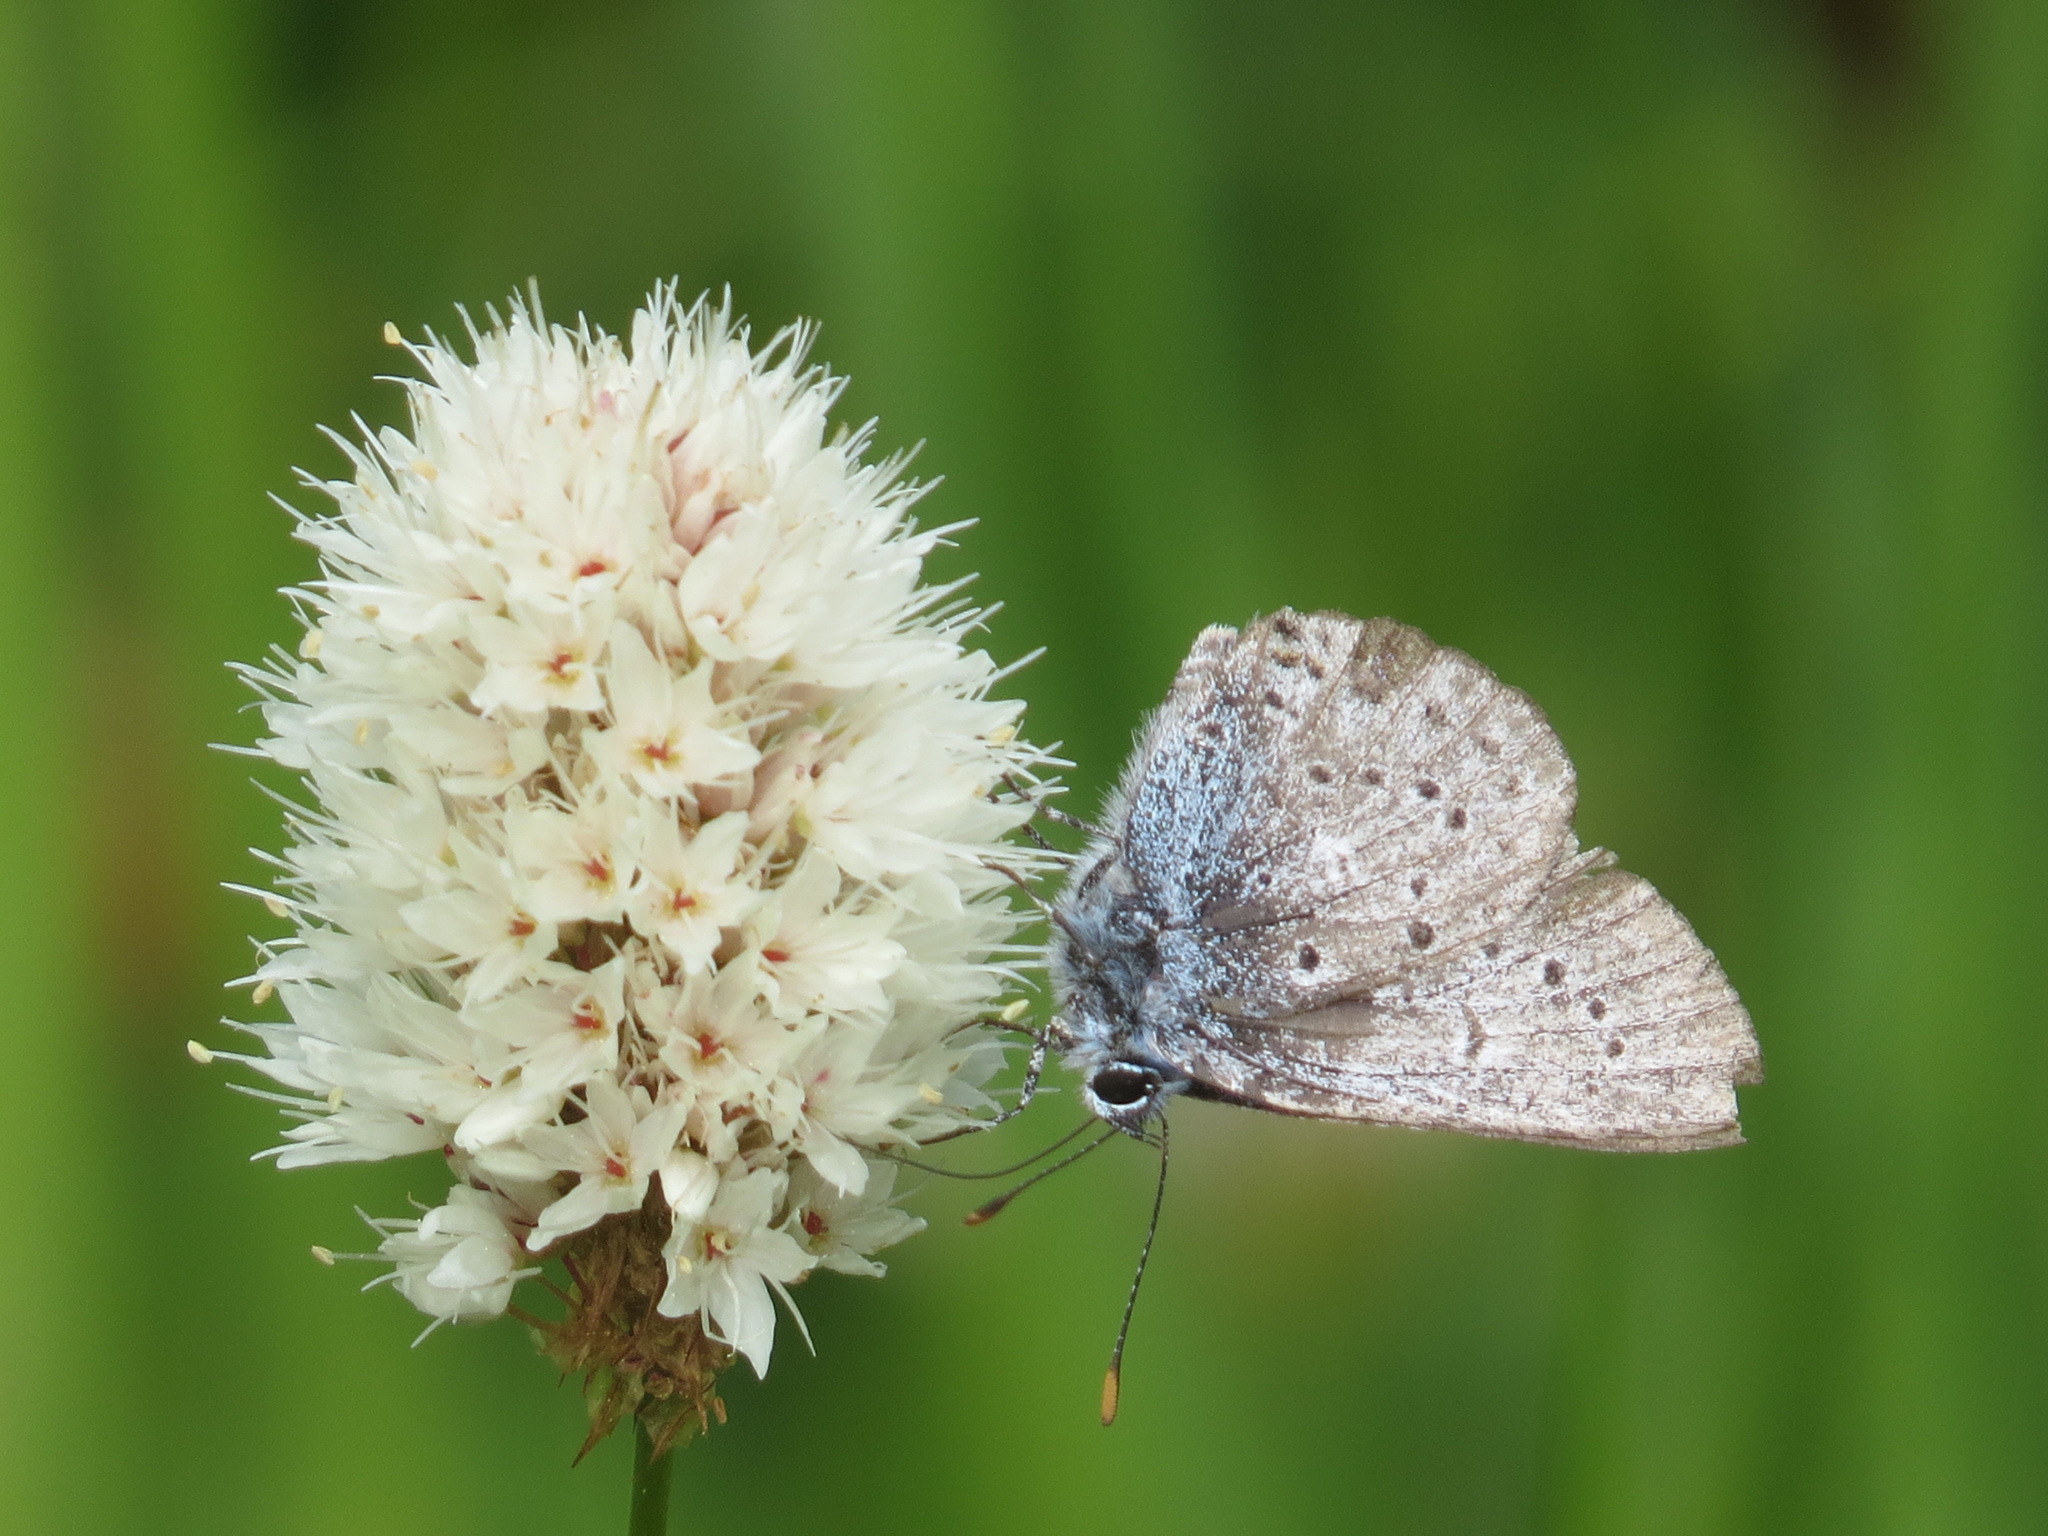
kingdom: Animalia
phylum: Arthropoda
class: Insecta
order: Lepidoptera
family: Lycaenidae
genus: Icaricia
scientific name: Icaricia saepiolus
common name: Greenish blue
